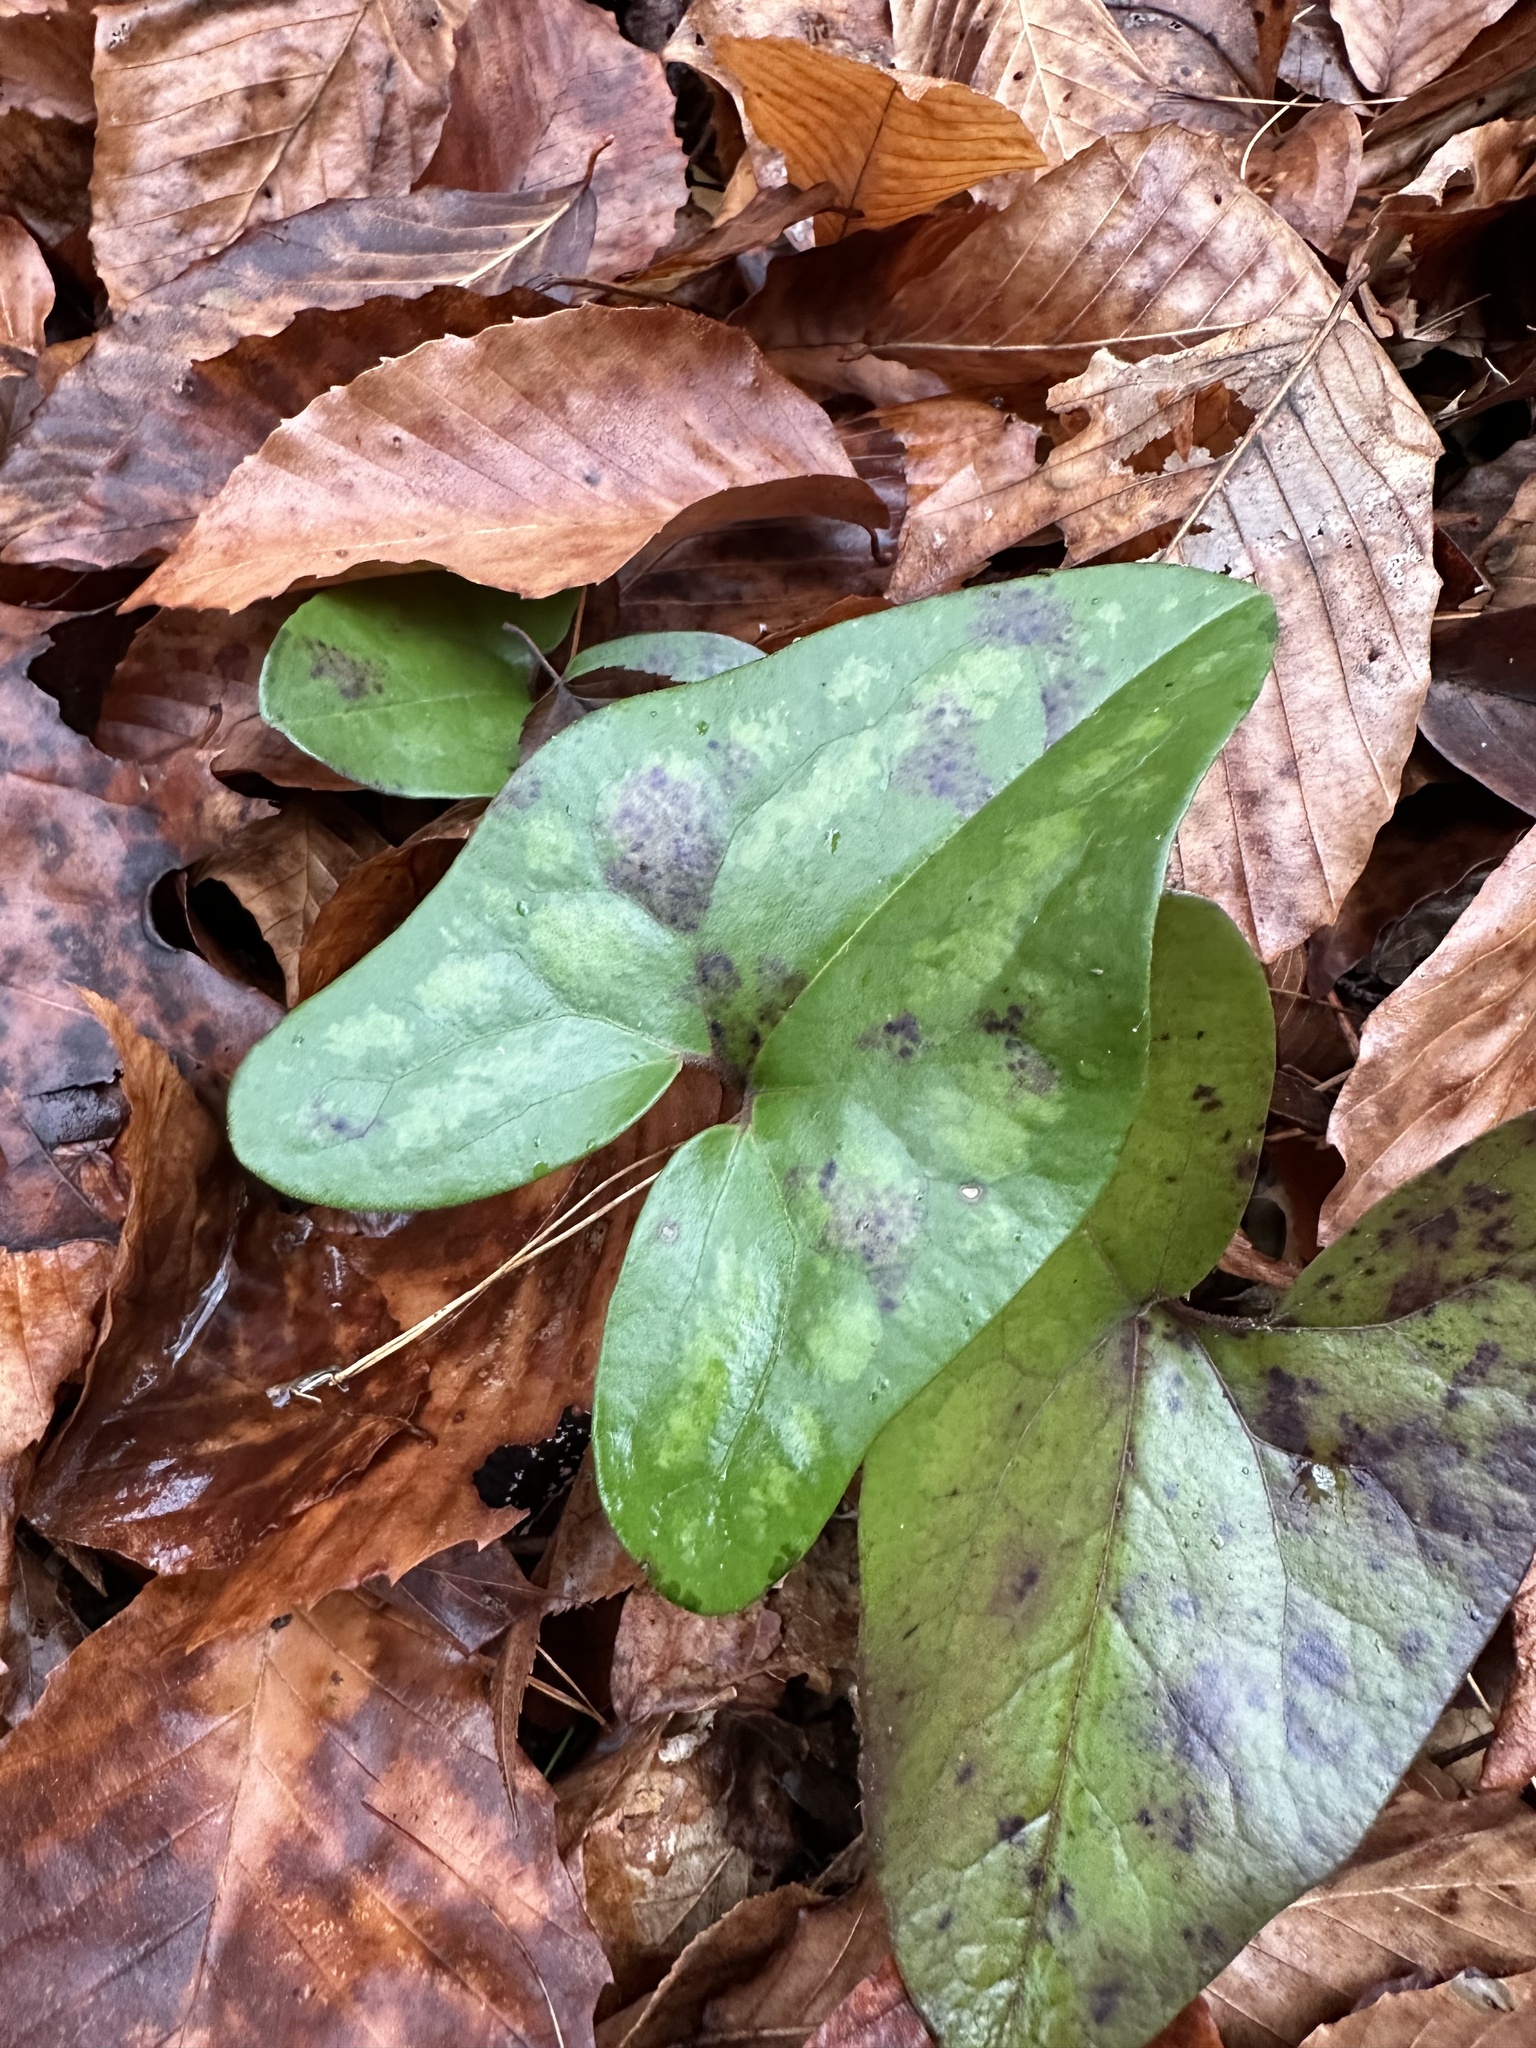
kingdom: Plantae
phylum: Tracheophyta
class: Magnoliopsida
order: Piperales
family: Aristolochiaceae
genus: Hexastylis
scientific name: Hexastylis arifolia
